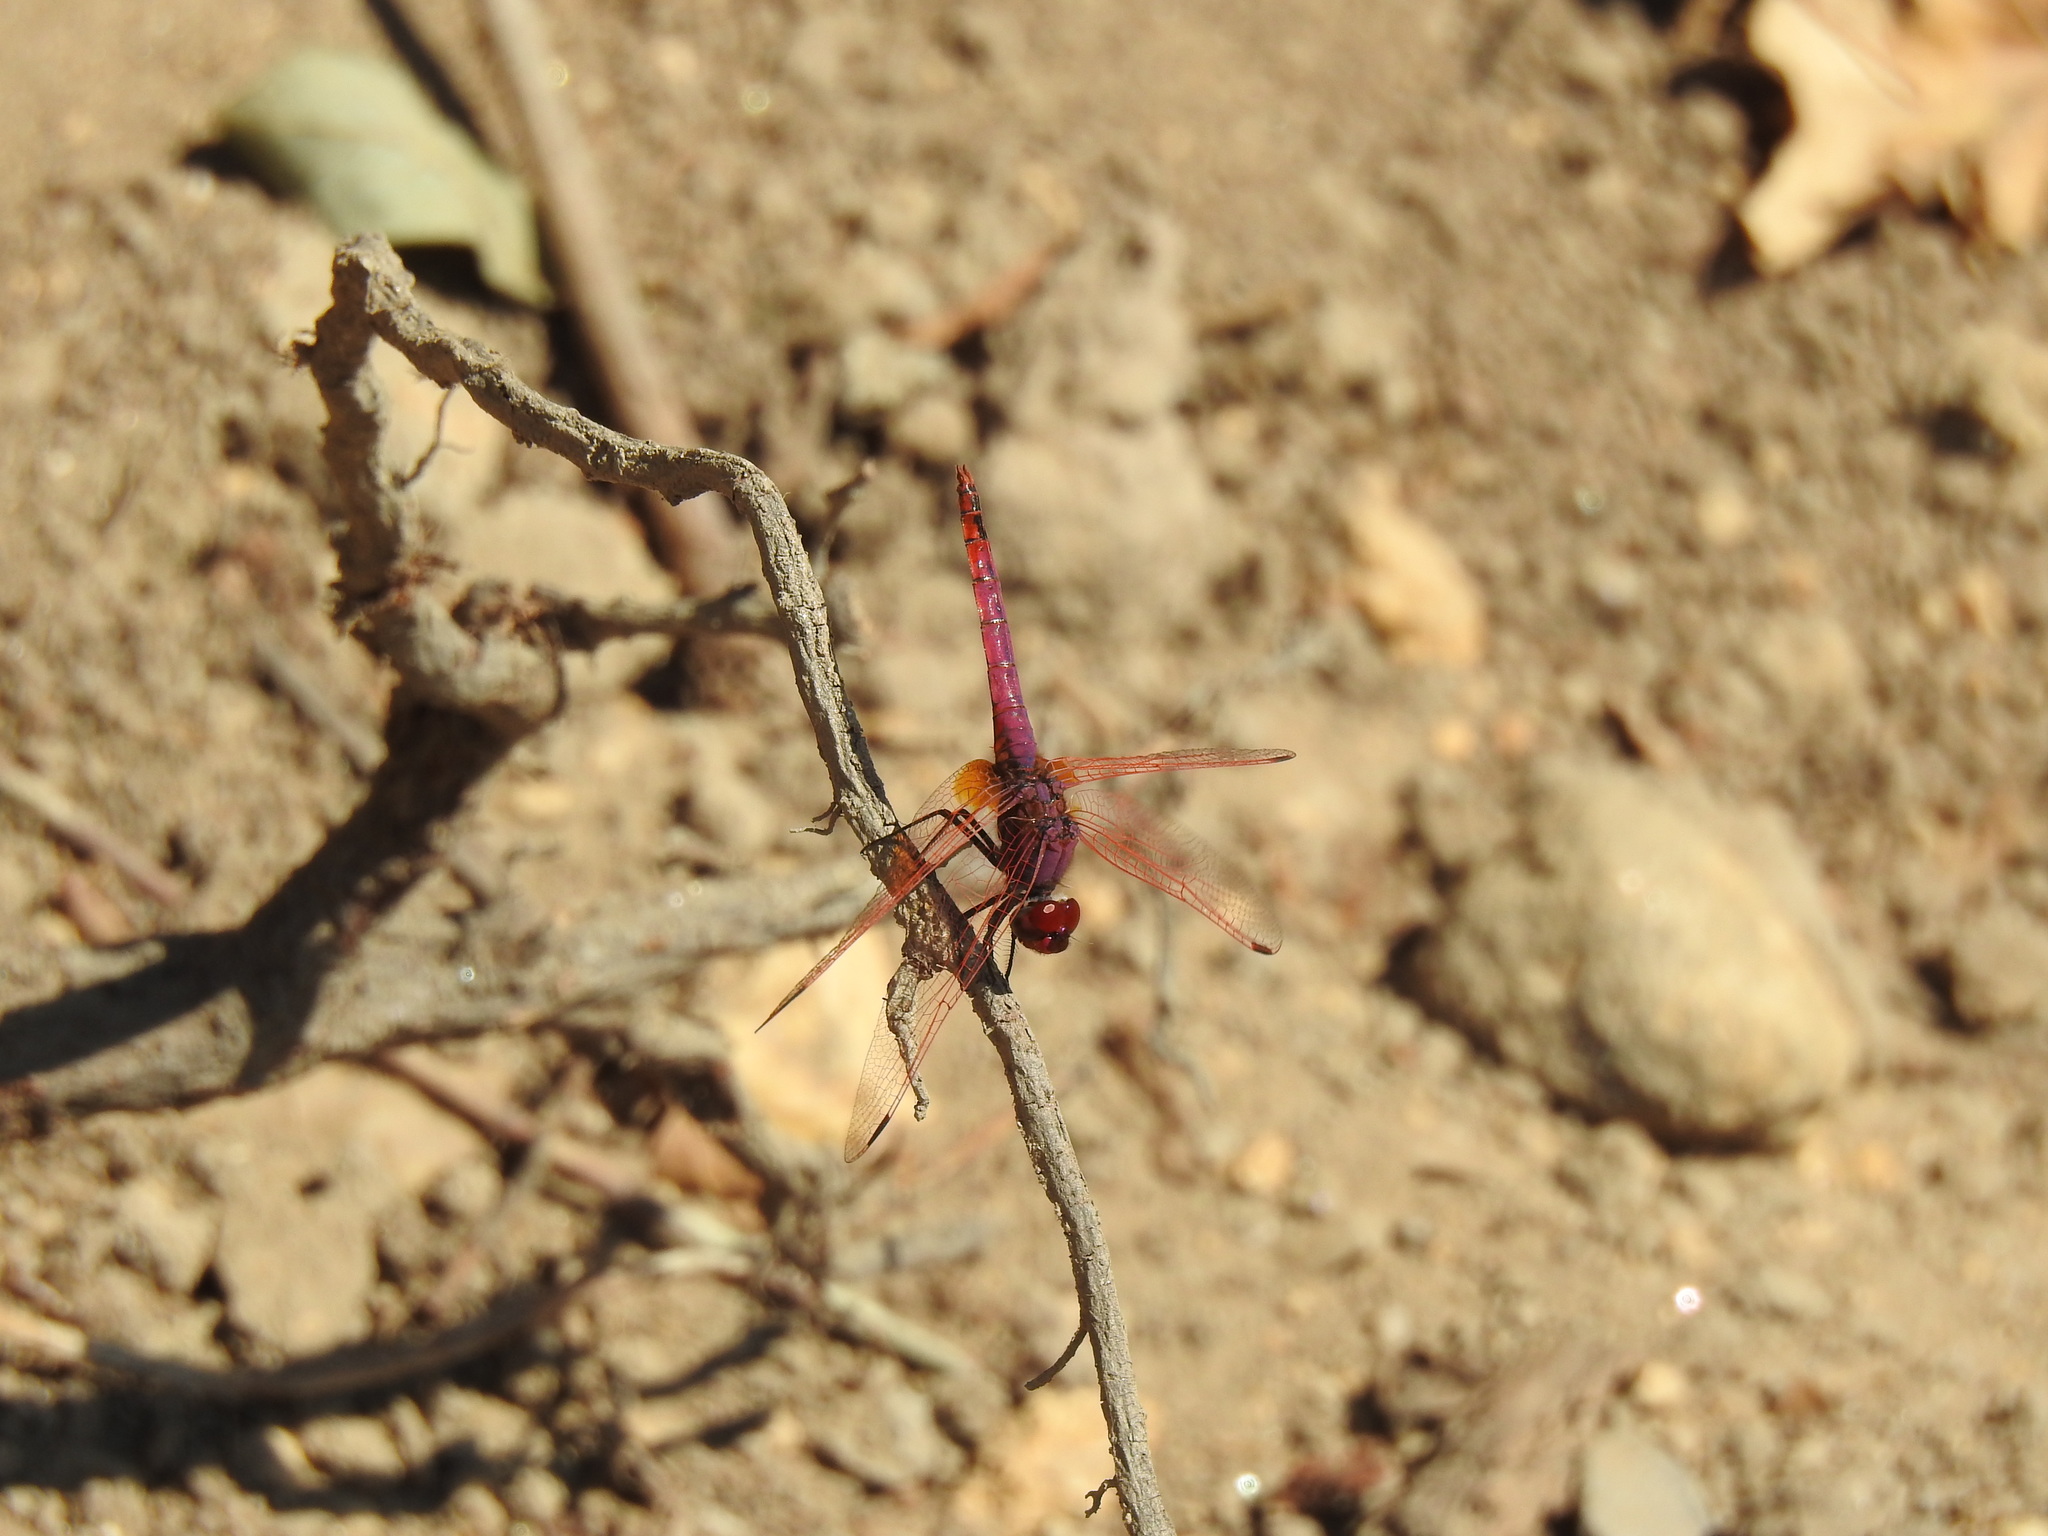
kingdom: Animalia
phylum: Arthropoda
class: Insecta
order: Odonata
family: Libellulidae
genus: Trithemis
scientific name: Trithemis annulata
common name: Violet dropwing
